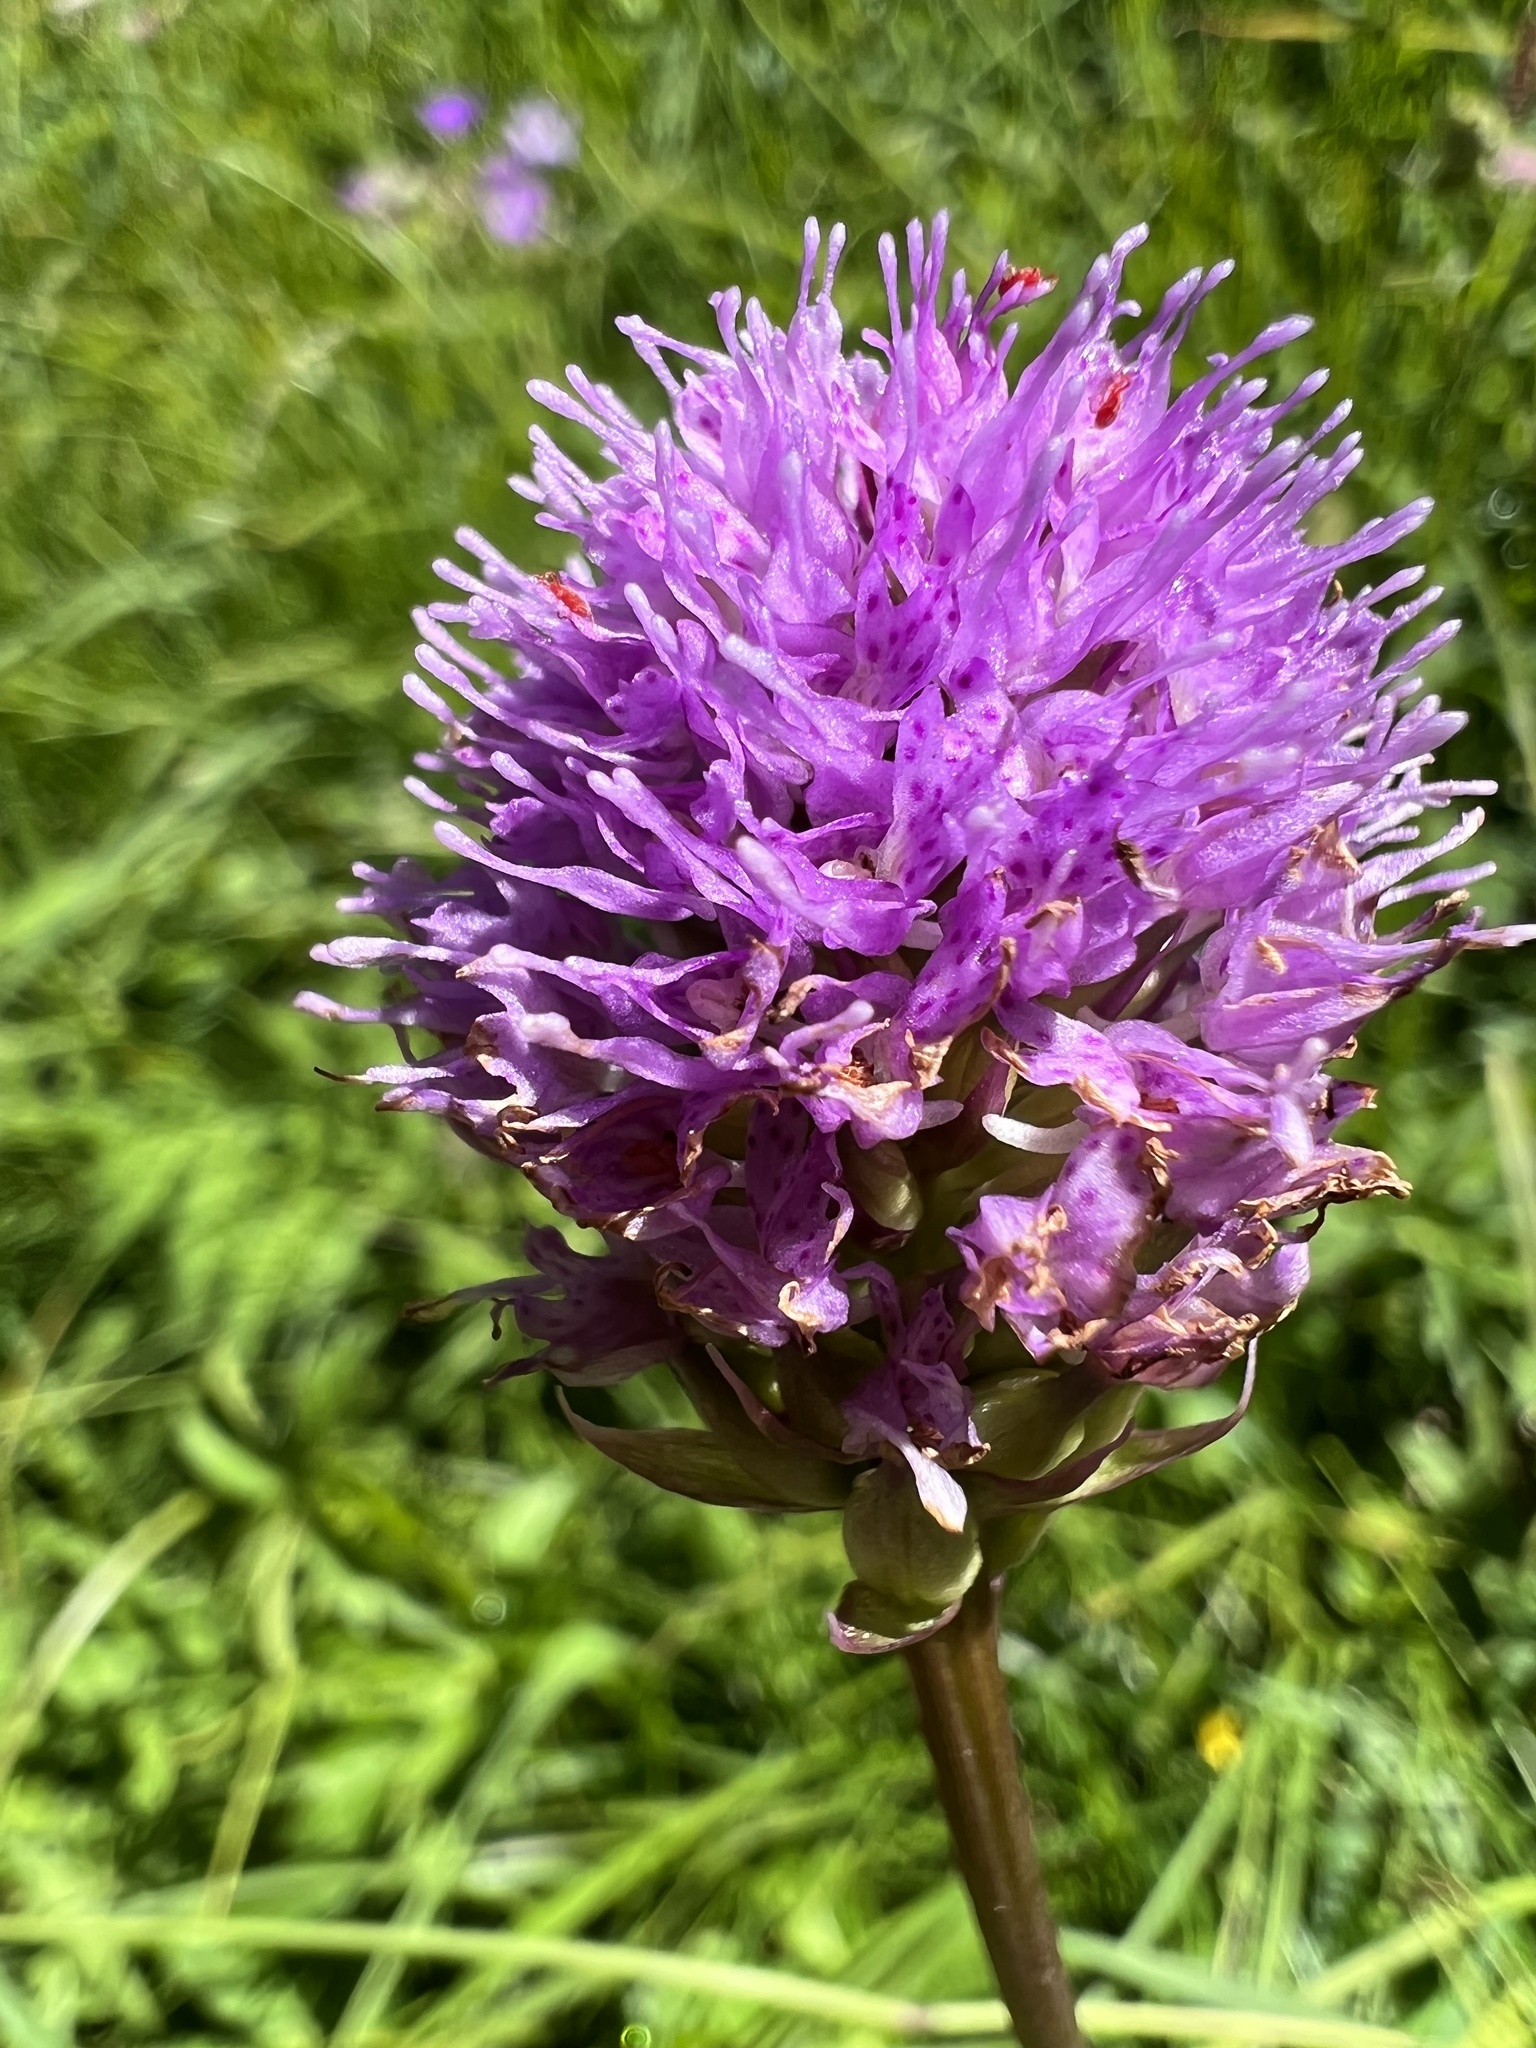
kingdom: Plantae
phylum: Tracheophyta
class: Liliopsida
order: Asparagales
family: Orchidaceae
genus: Traunsteinera
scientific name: Traunsteinera globosa
